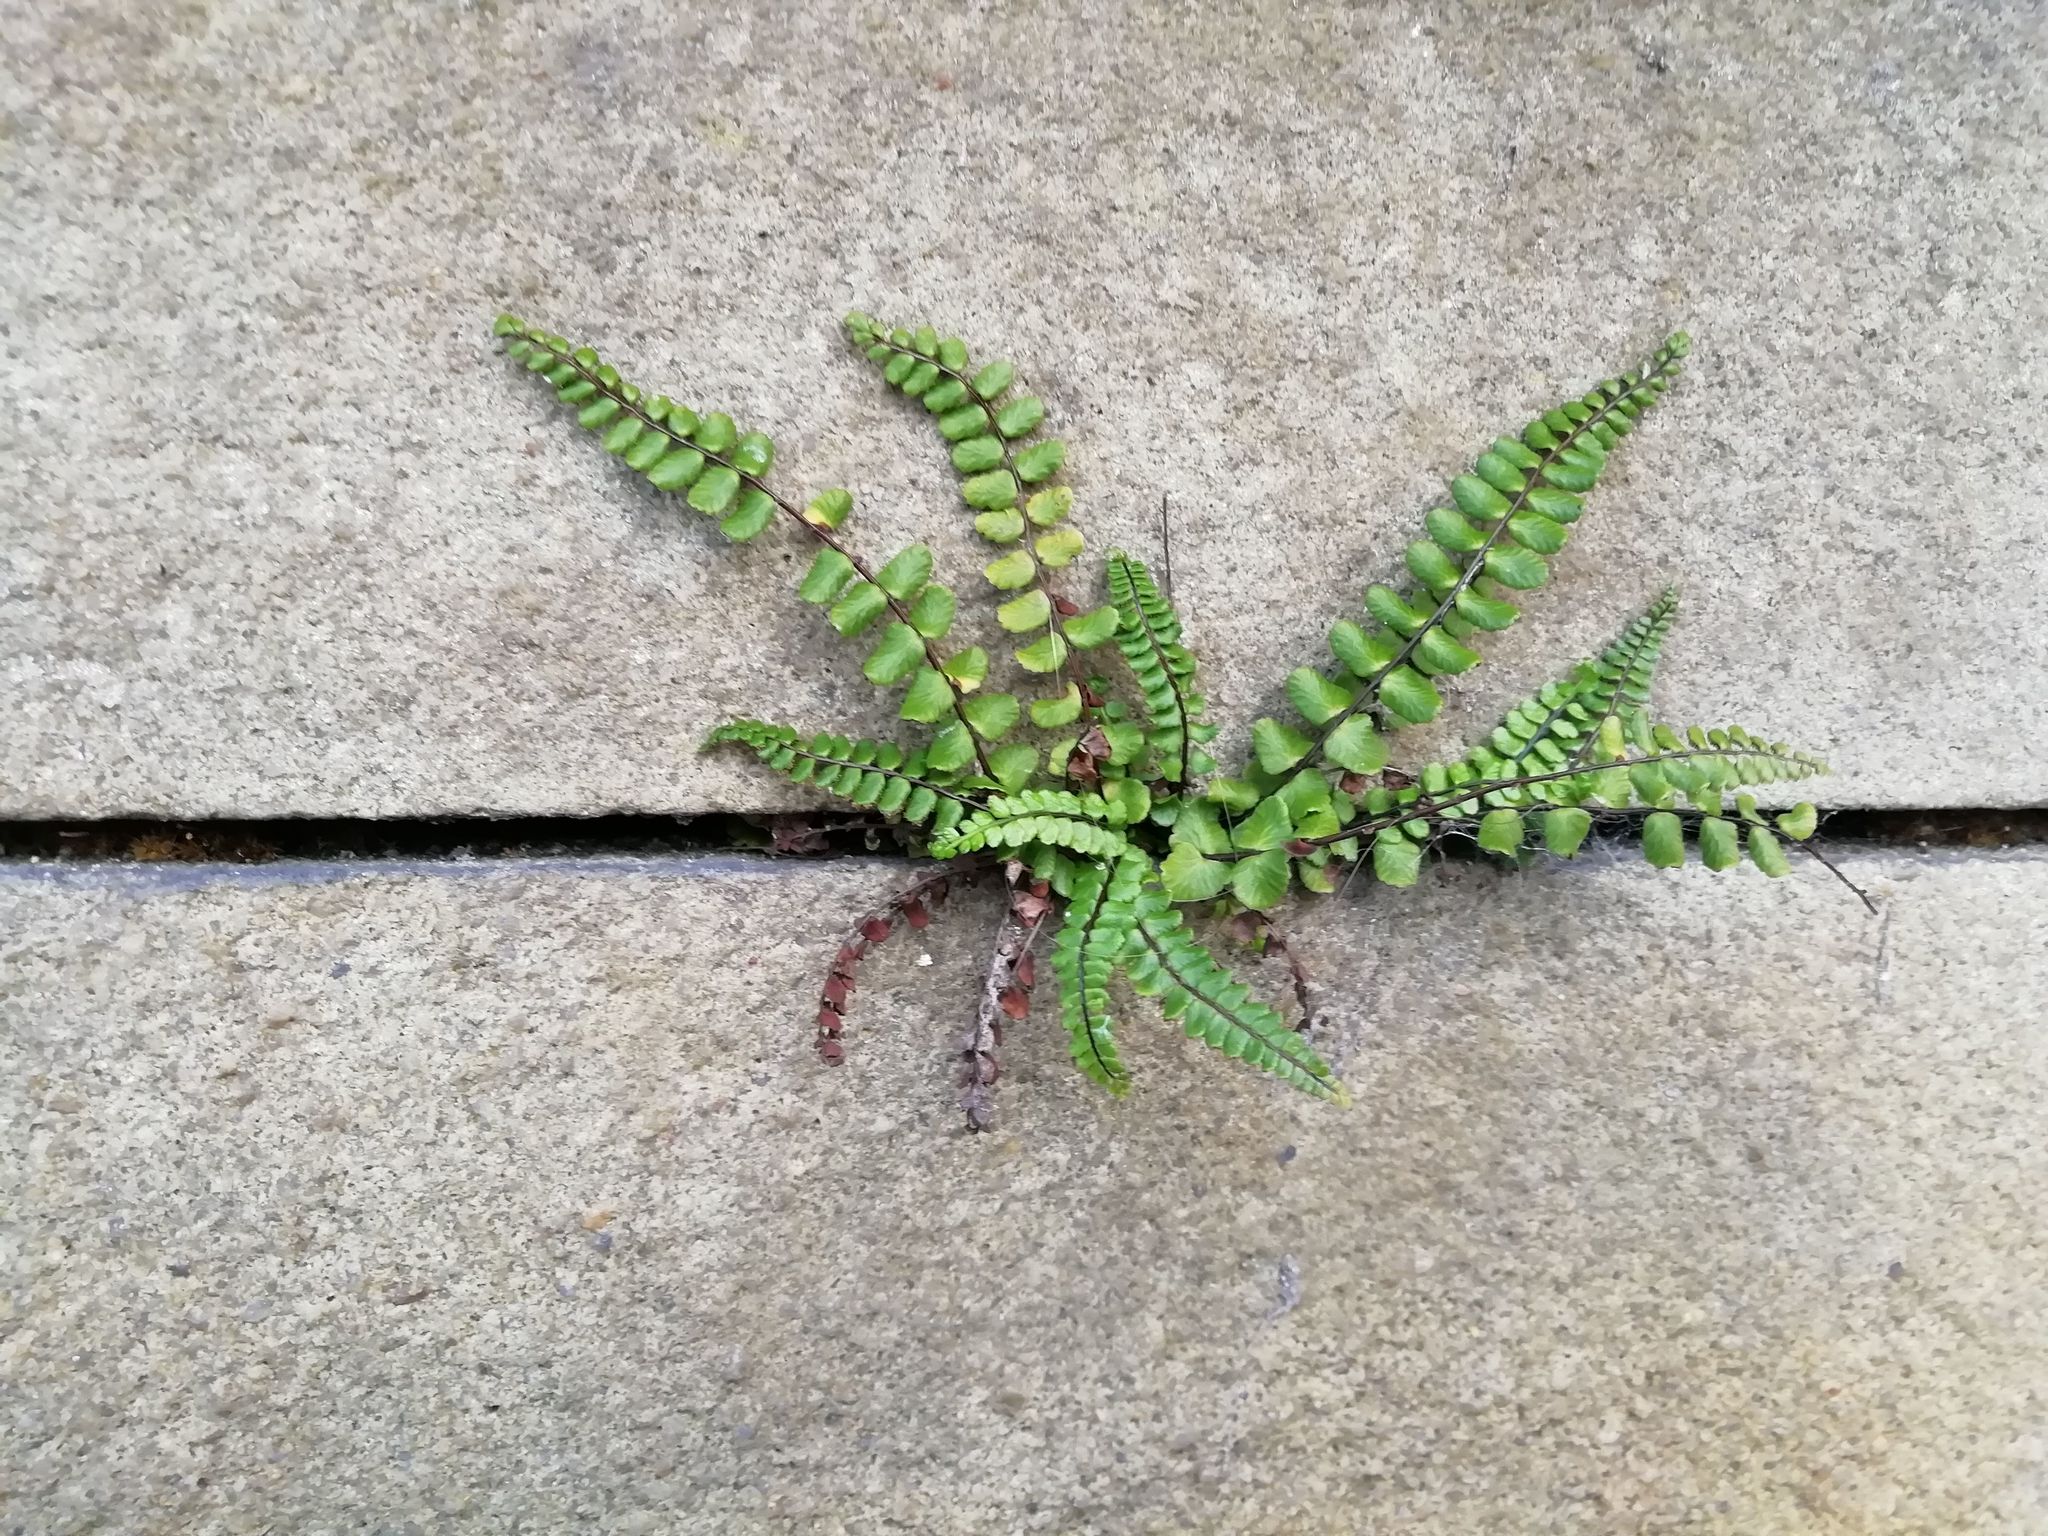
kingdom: Plantae
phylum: Tracheophyta
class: Polypodiopsida
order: Polypodiales
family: Aspleniaceae
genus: Asplenium
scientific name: Asplenium trichomanes
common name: Maidenhair spleenwort
